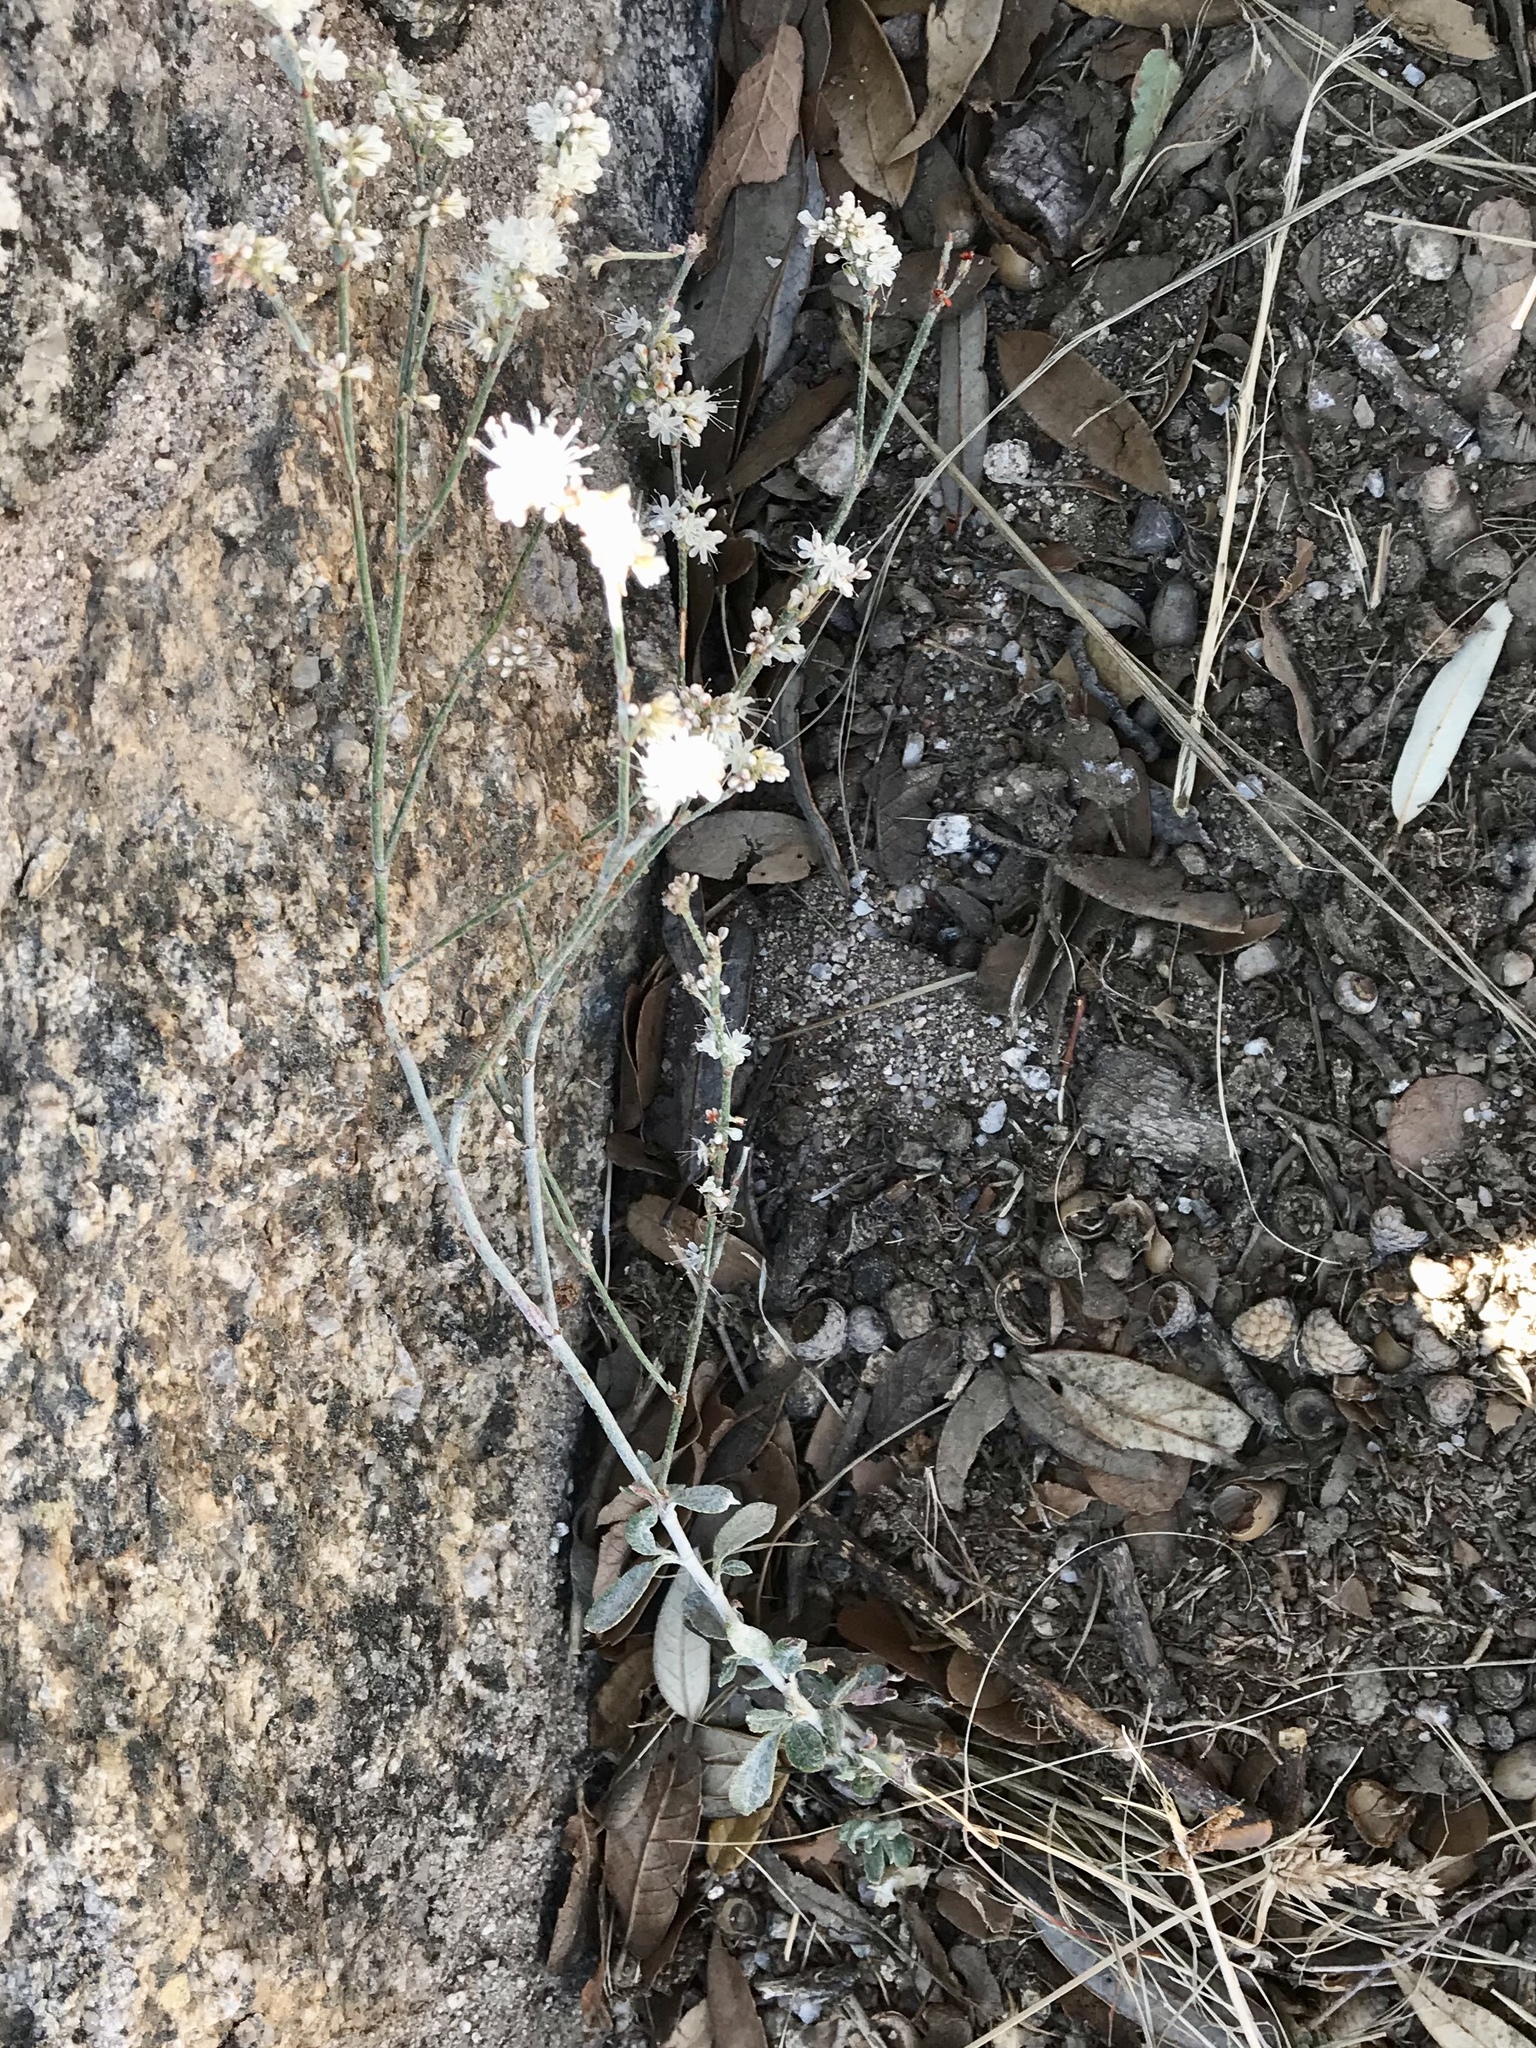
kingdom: Plantae
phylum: Tracheophyta
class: Magnoliopsida
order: Caryophyllales
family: Polygonaceae
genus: Eriogonum
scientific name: Eriogonum wrightii
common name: Bastard-sage
